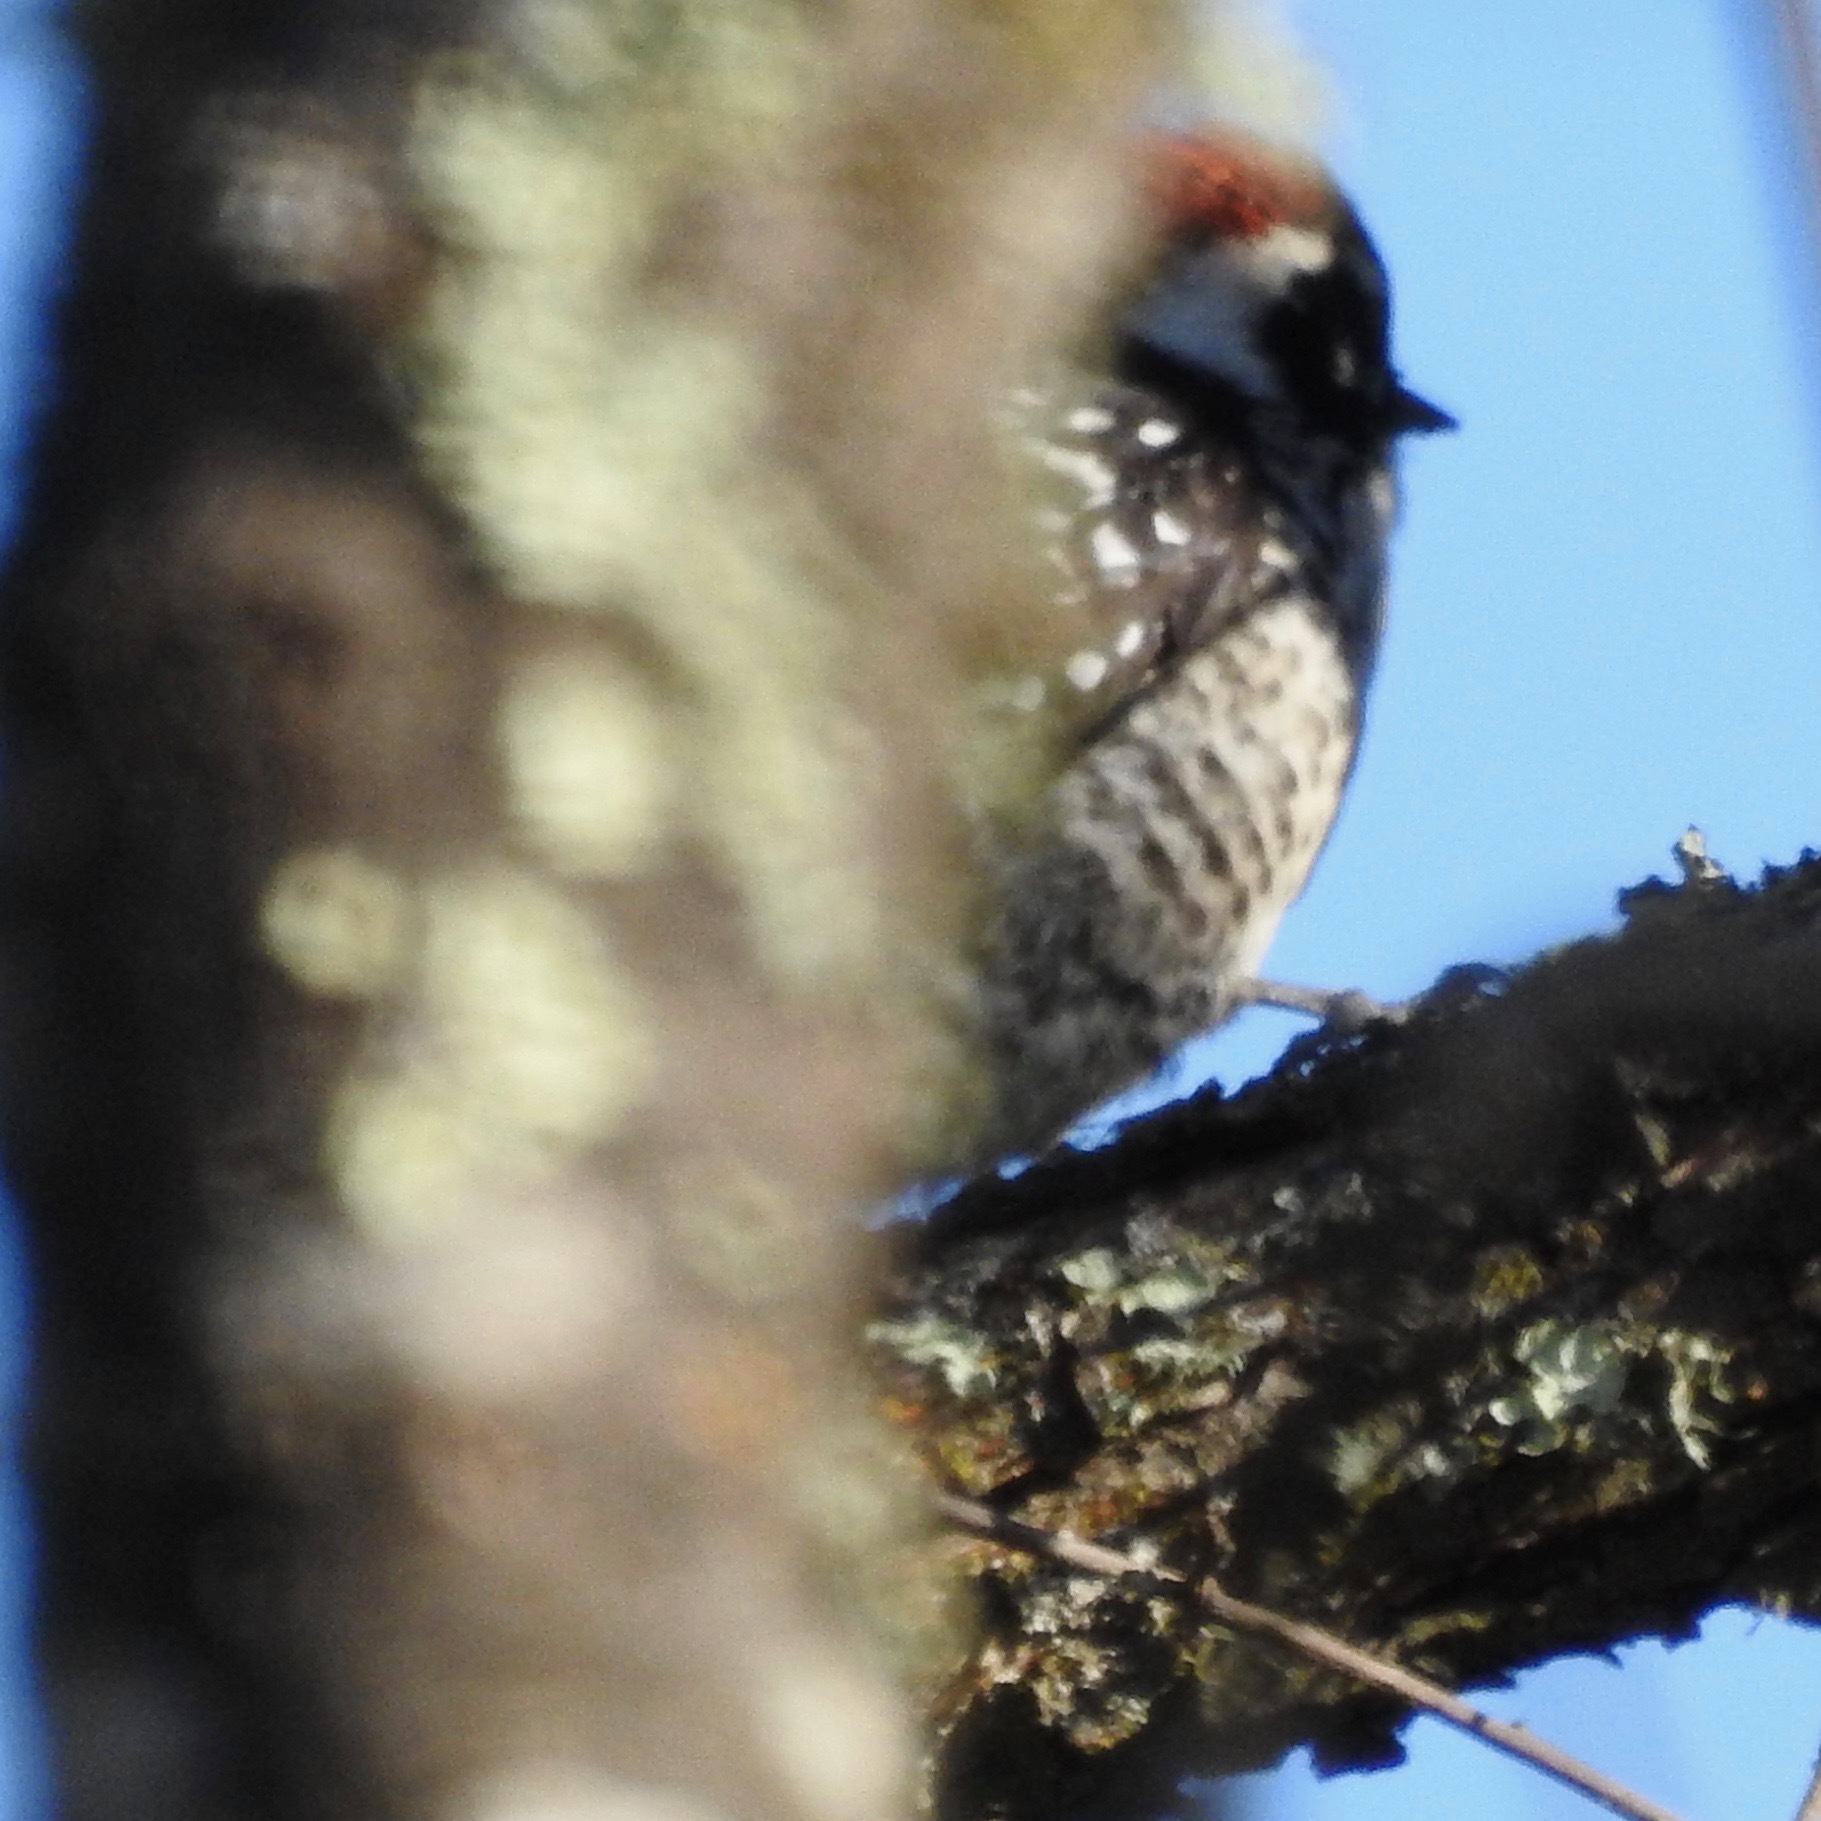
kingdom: Animalia
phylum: Chordata
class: Aves
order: Piciformes
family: Picidae
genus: Dryobates
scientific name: Dryobates nuttallii
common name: Nuttall's woodpecker
